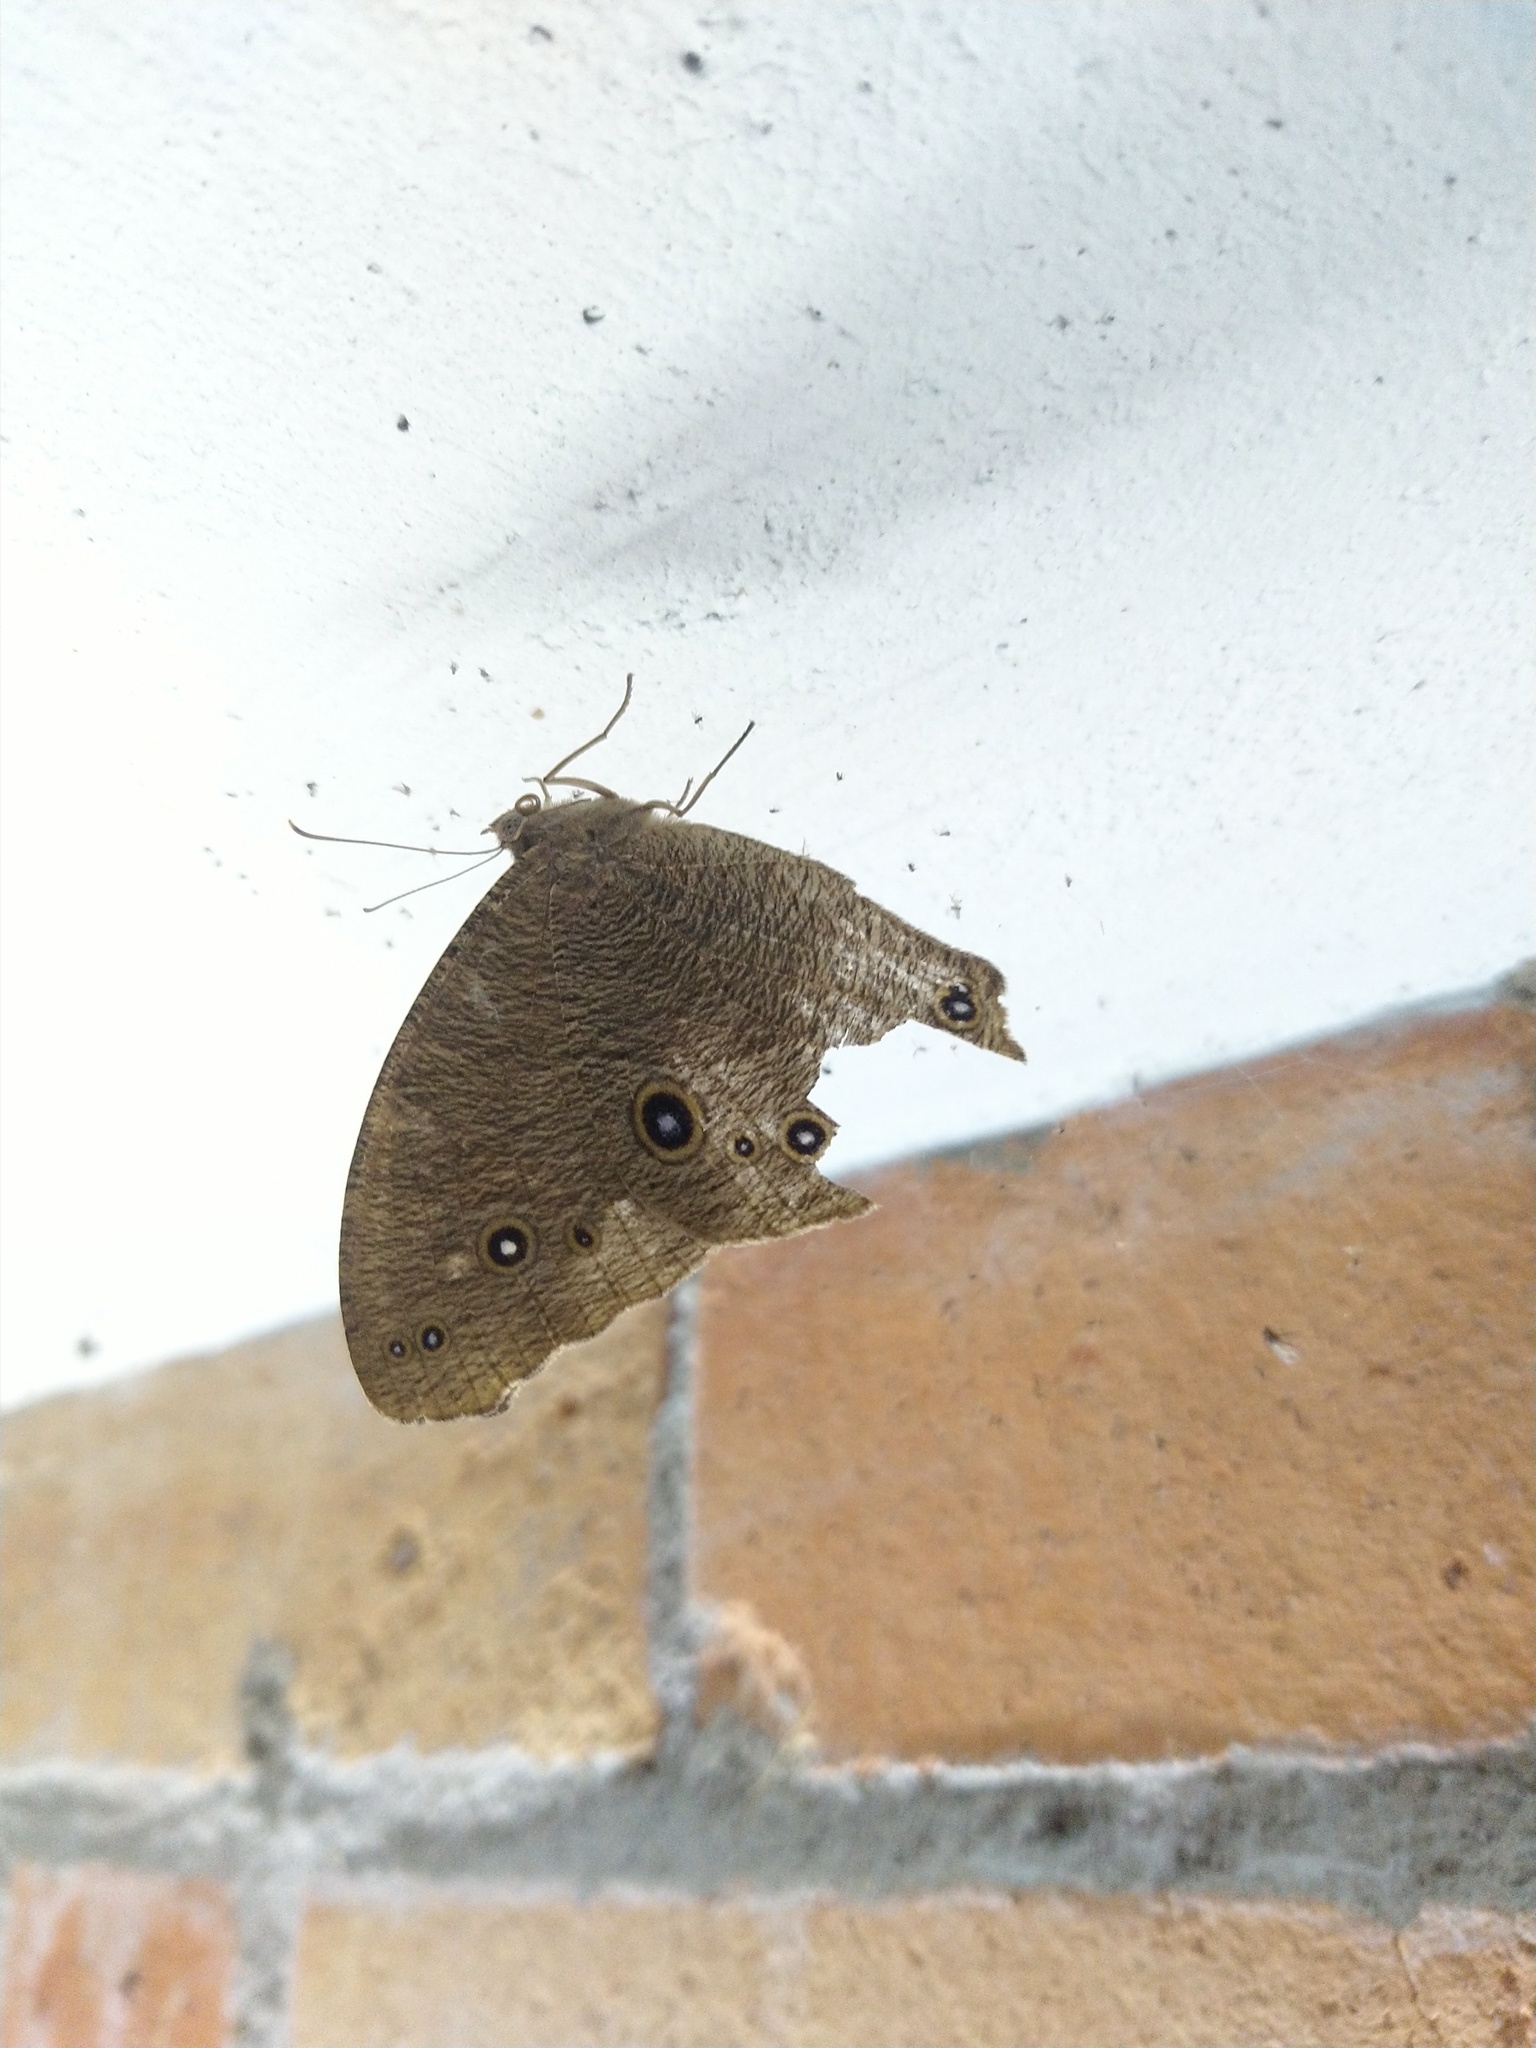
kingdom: Animalia
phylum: Arthropoda
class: Insecta
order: Lepidoptera
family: Nymphalidae
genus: Melanitis
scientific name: Melanitis leda
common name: Twilight brown
